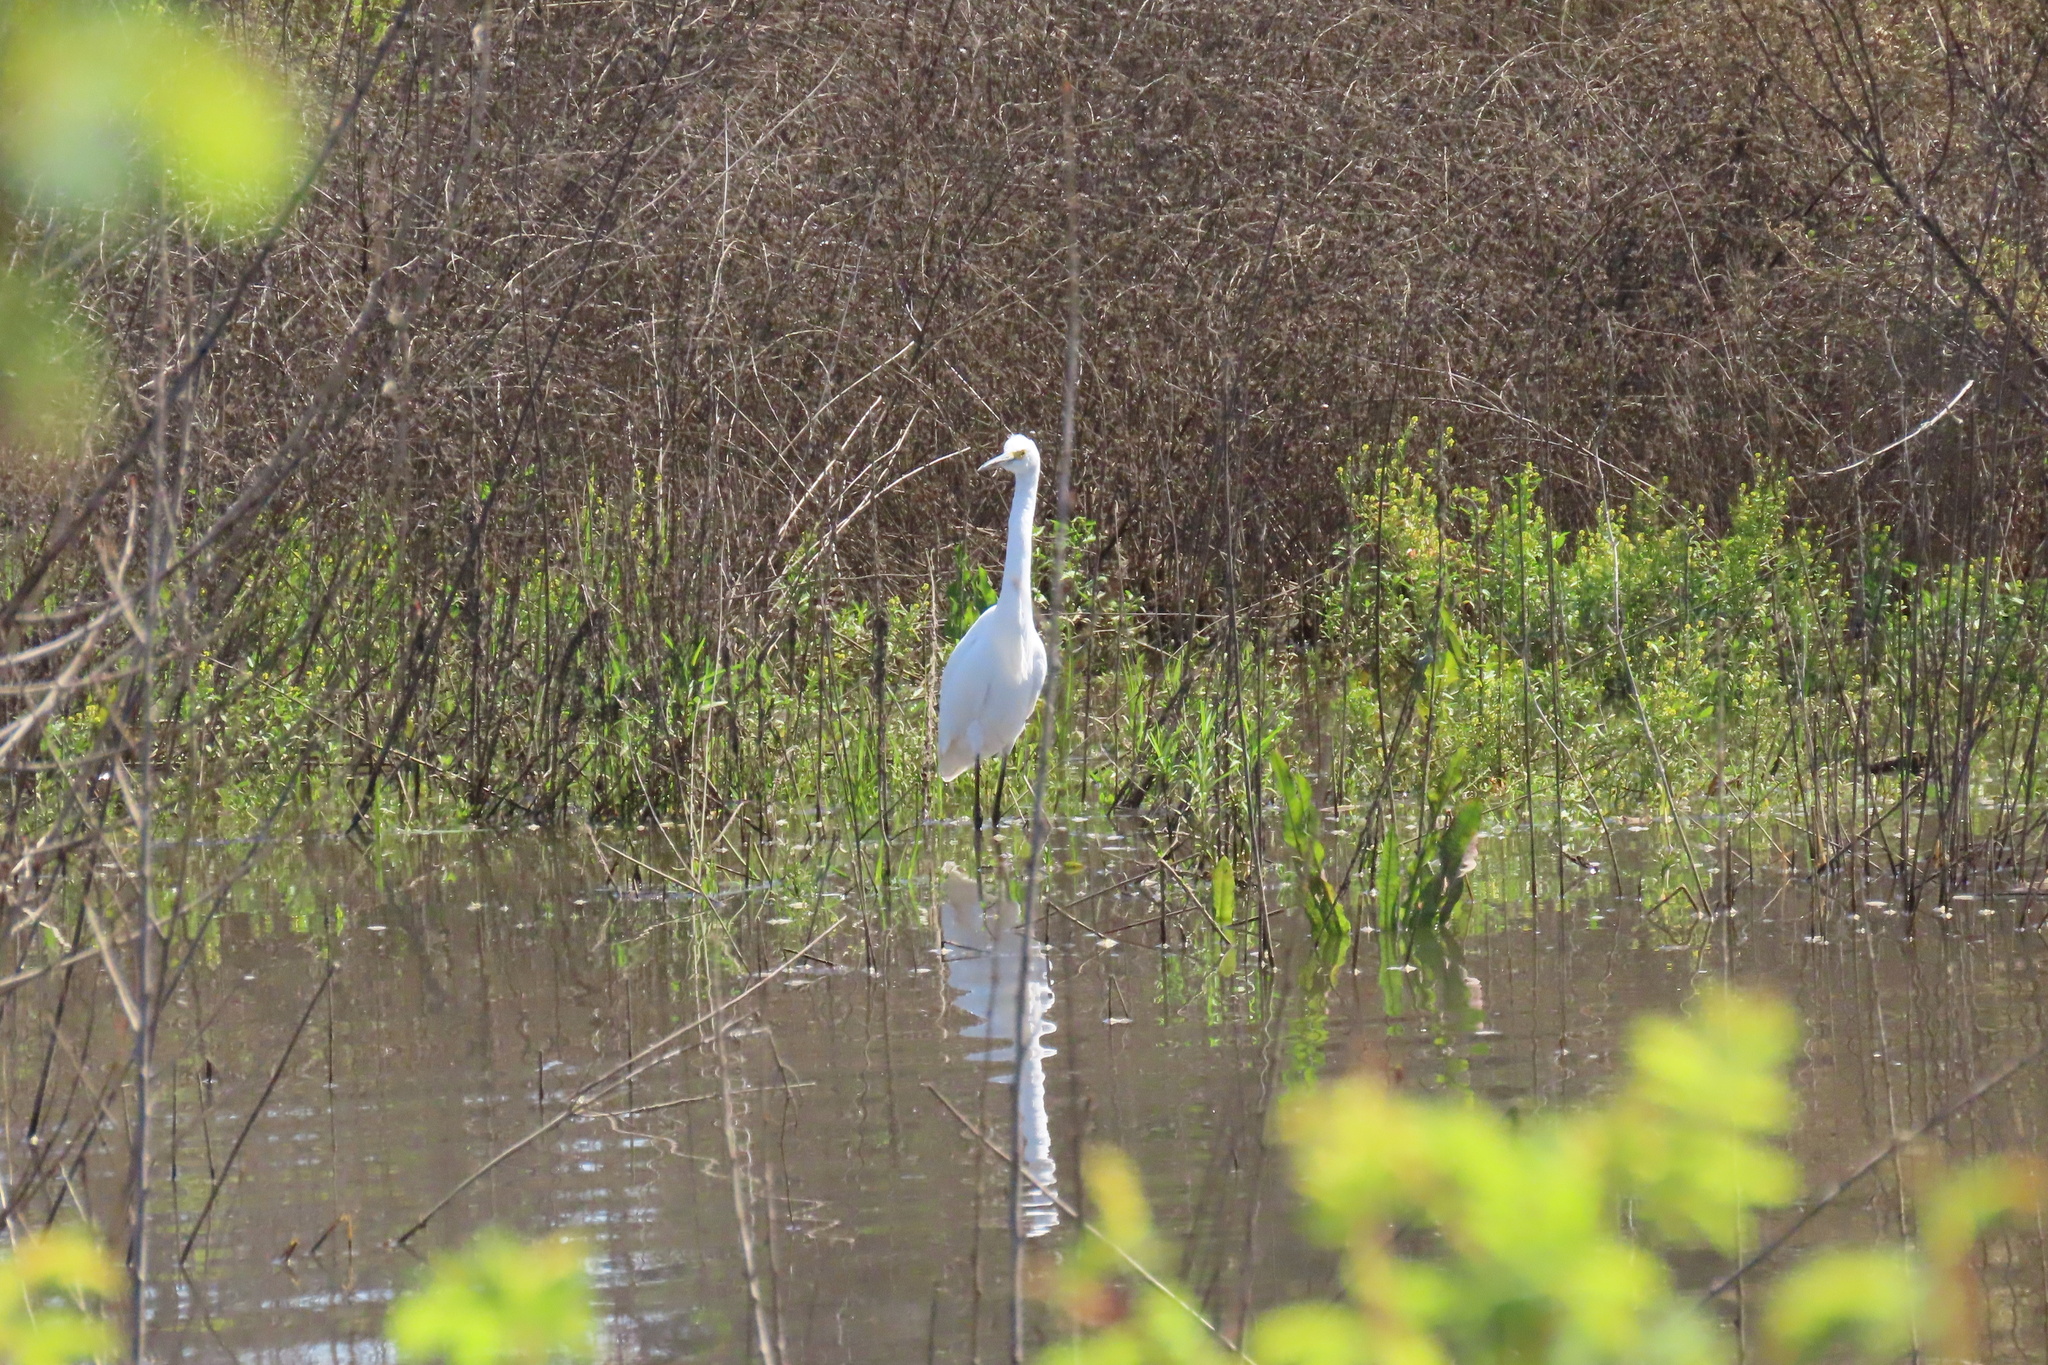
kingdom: Animalia
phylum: Chordata
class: Aves
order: Pelecaniformes
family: Ardeidae
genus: Egretta
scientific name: Egretta thula
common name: Snowy egret
